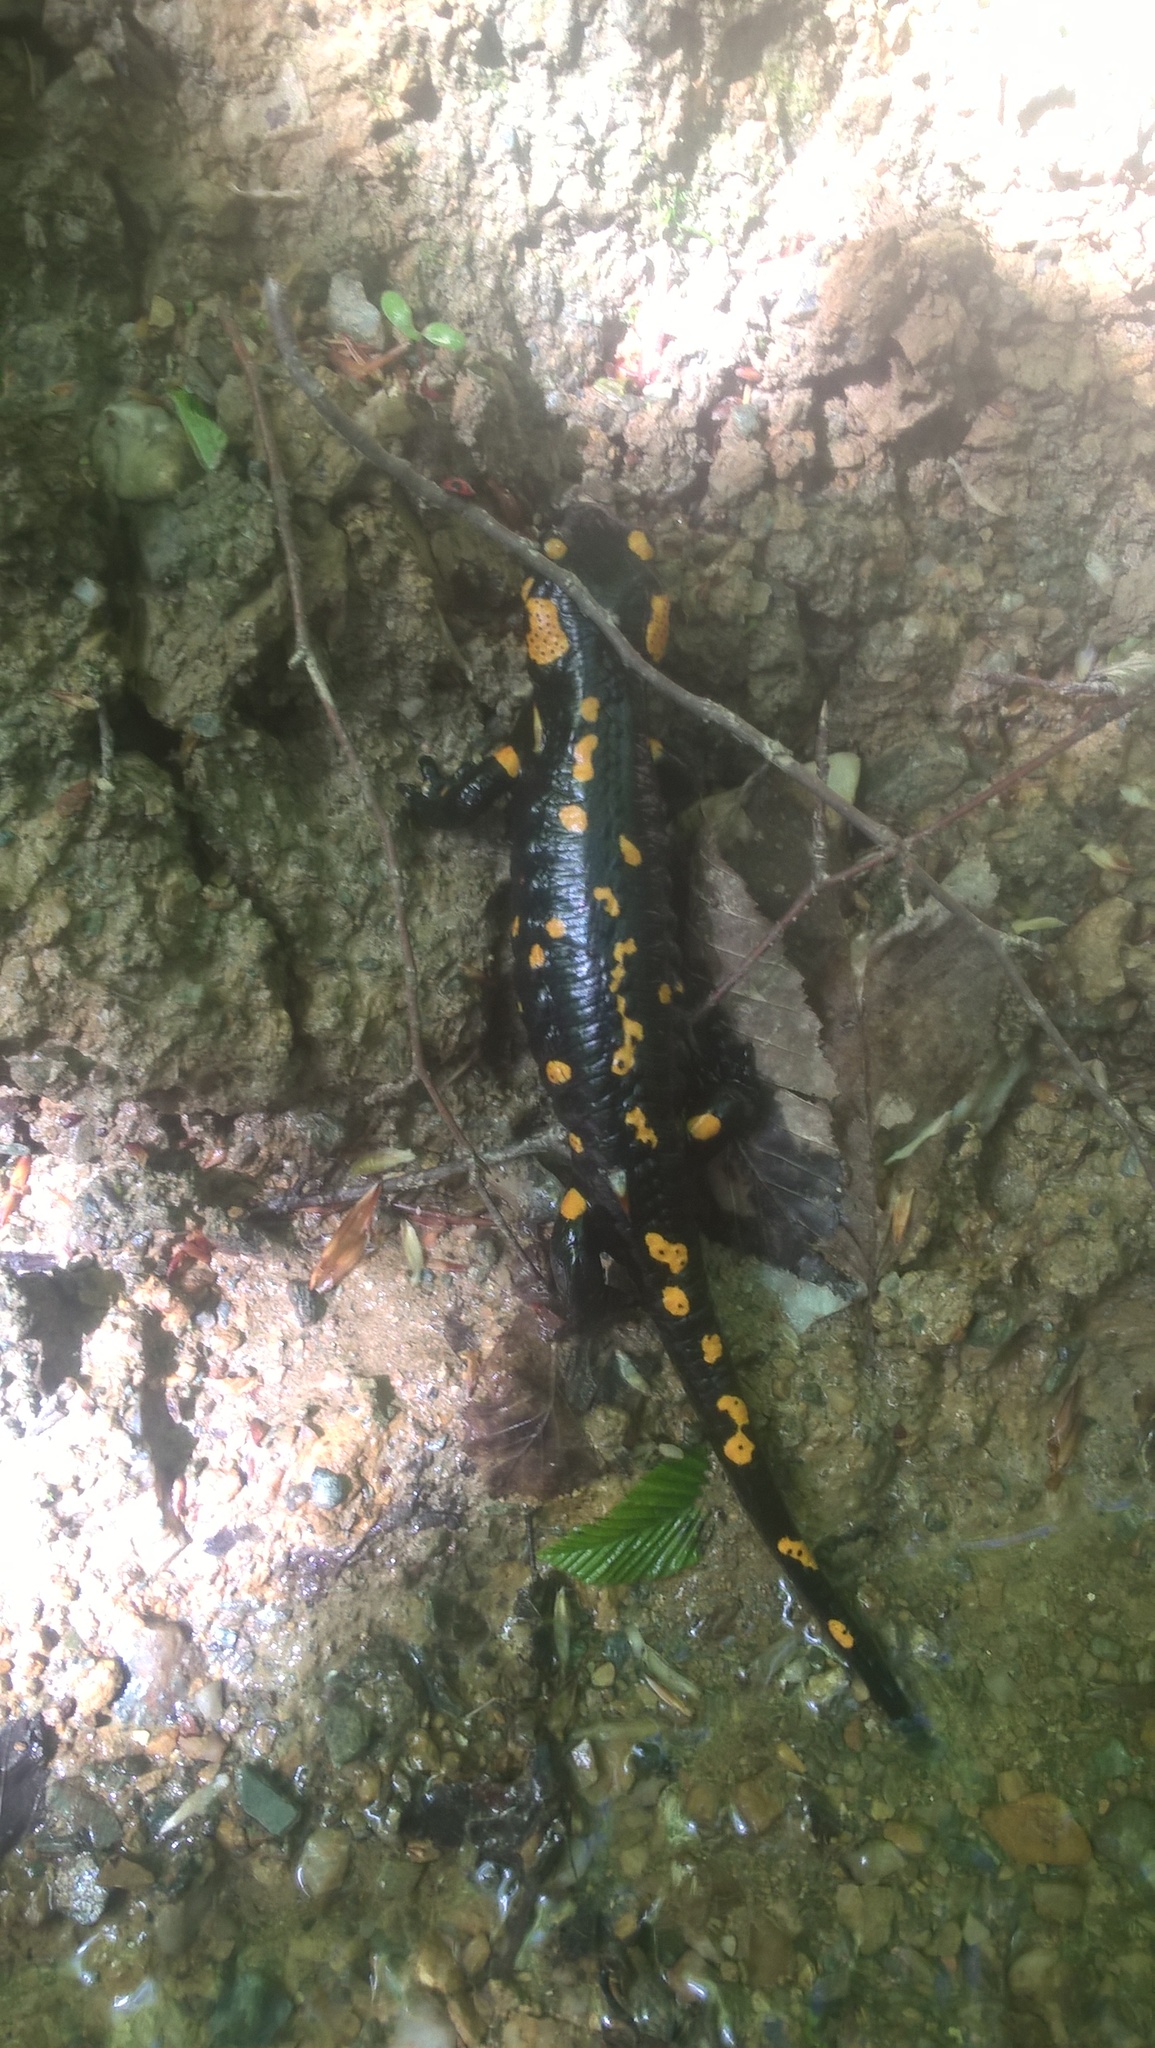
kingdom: Animalia
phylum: Chordata
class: Amphibia
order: Caudata
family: Salamandridae
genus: Salamandra
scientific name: Salamandra salamandra
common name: Fire salamander
